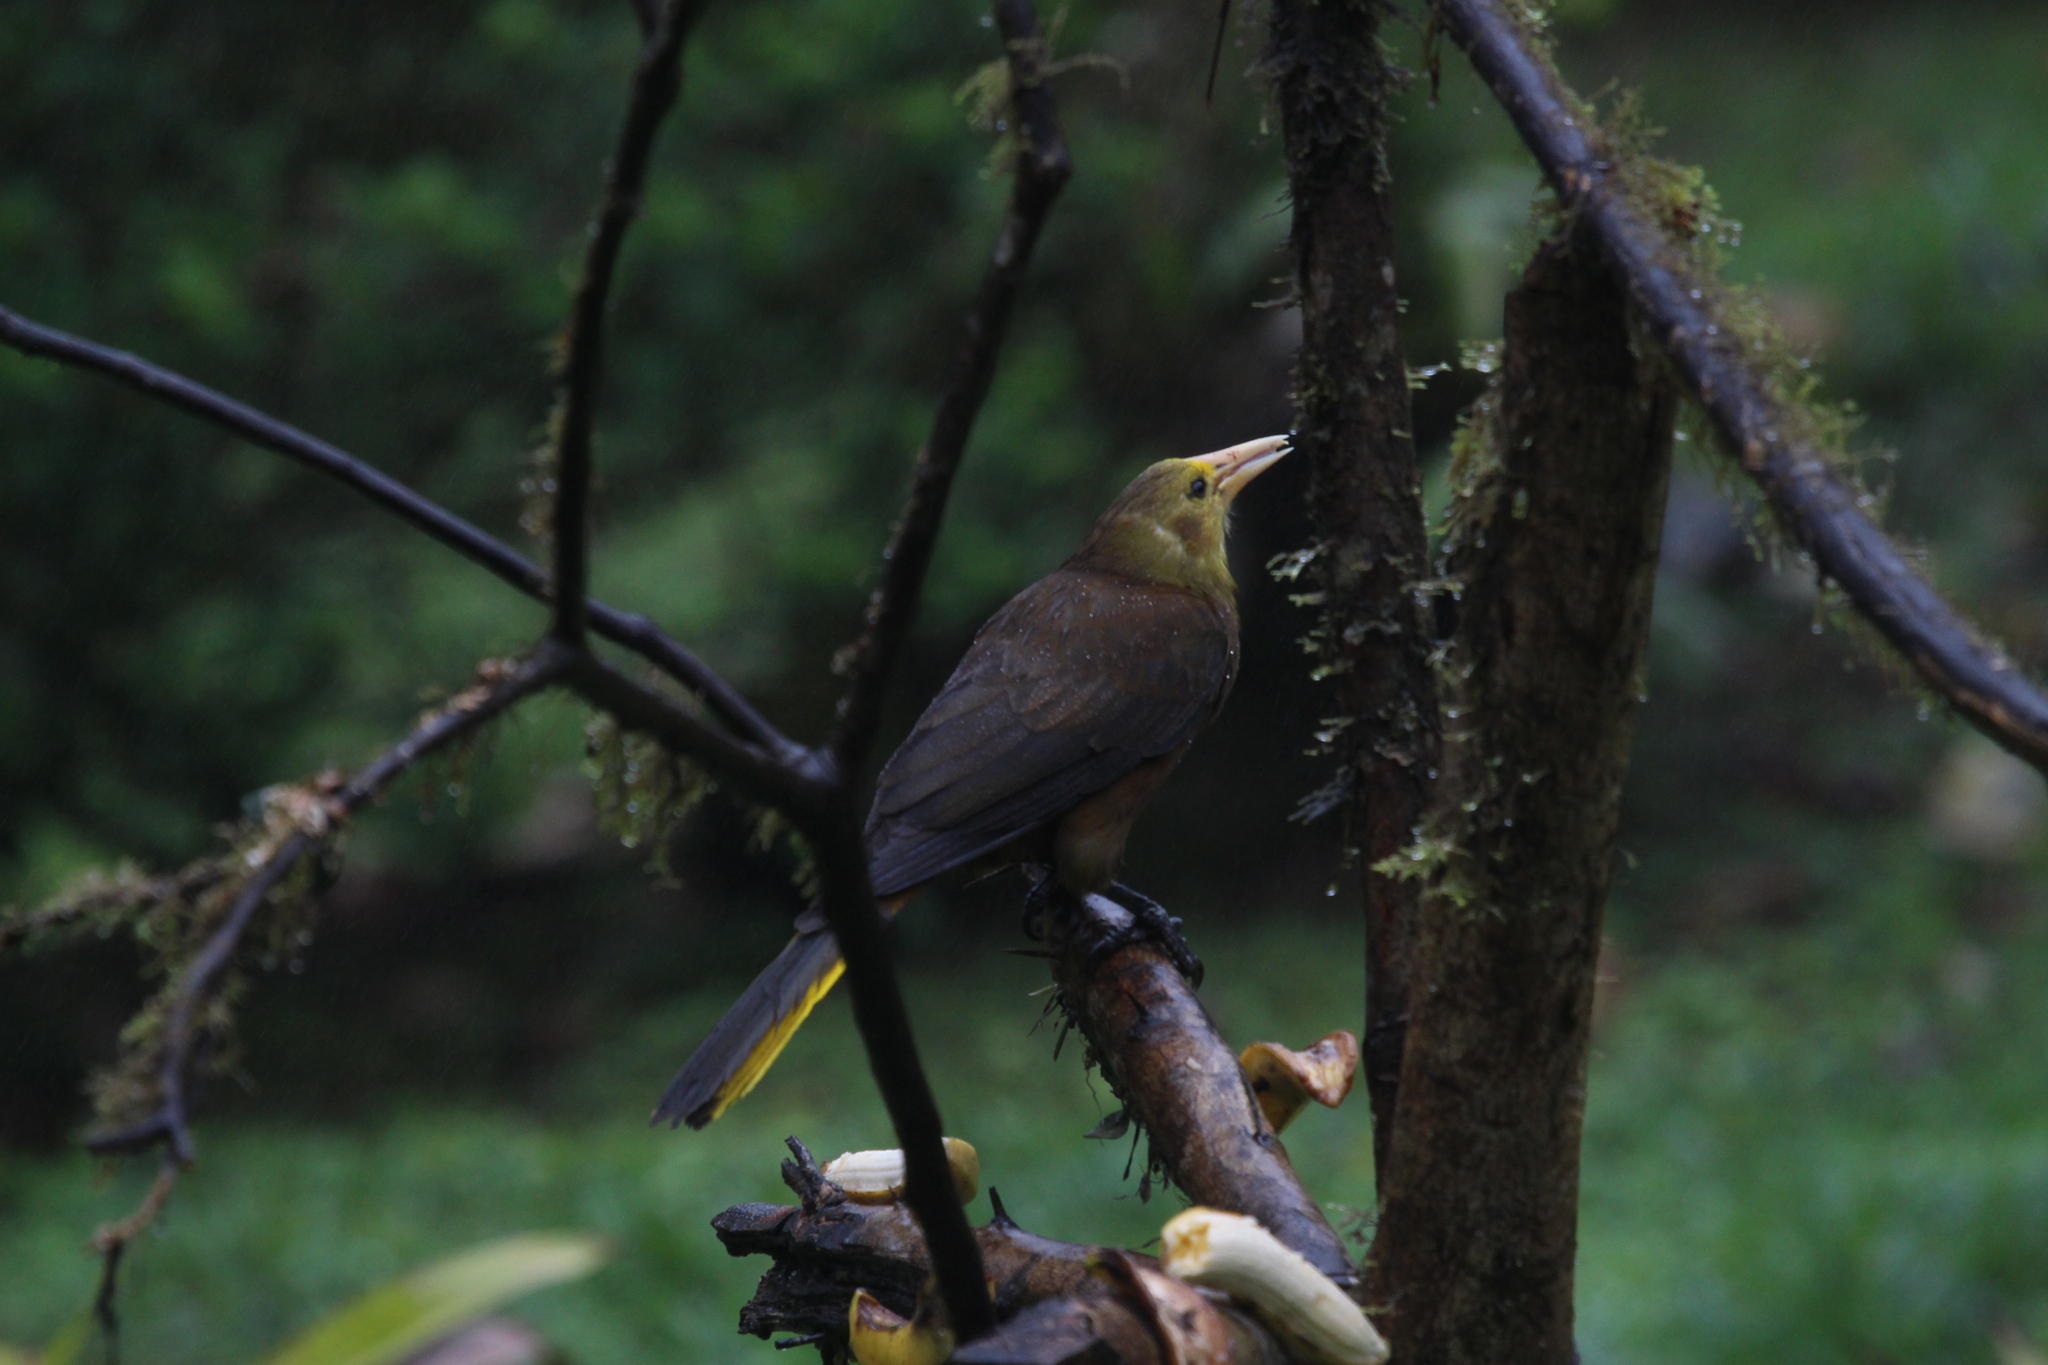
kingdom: Animalia
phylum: Chordata
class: Aves
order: Passeriformes
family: Icteridae
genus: Psarocolius
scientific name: Psarocolius angustifrons
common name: Russet-backed oropendola
